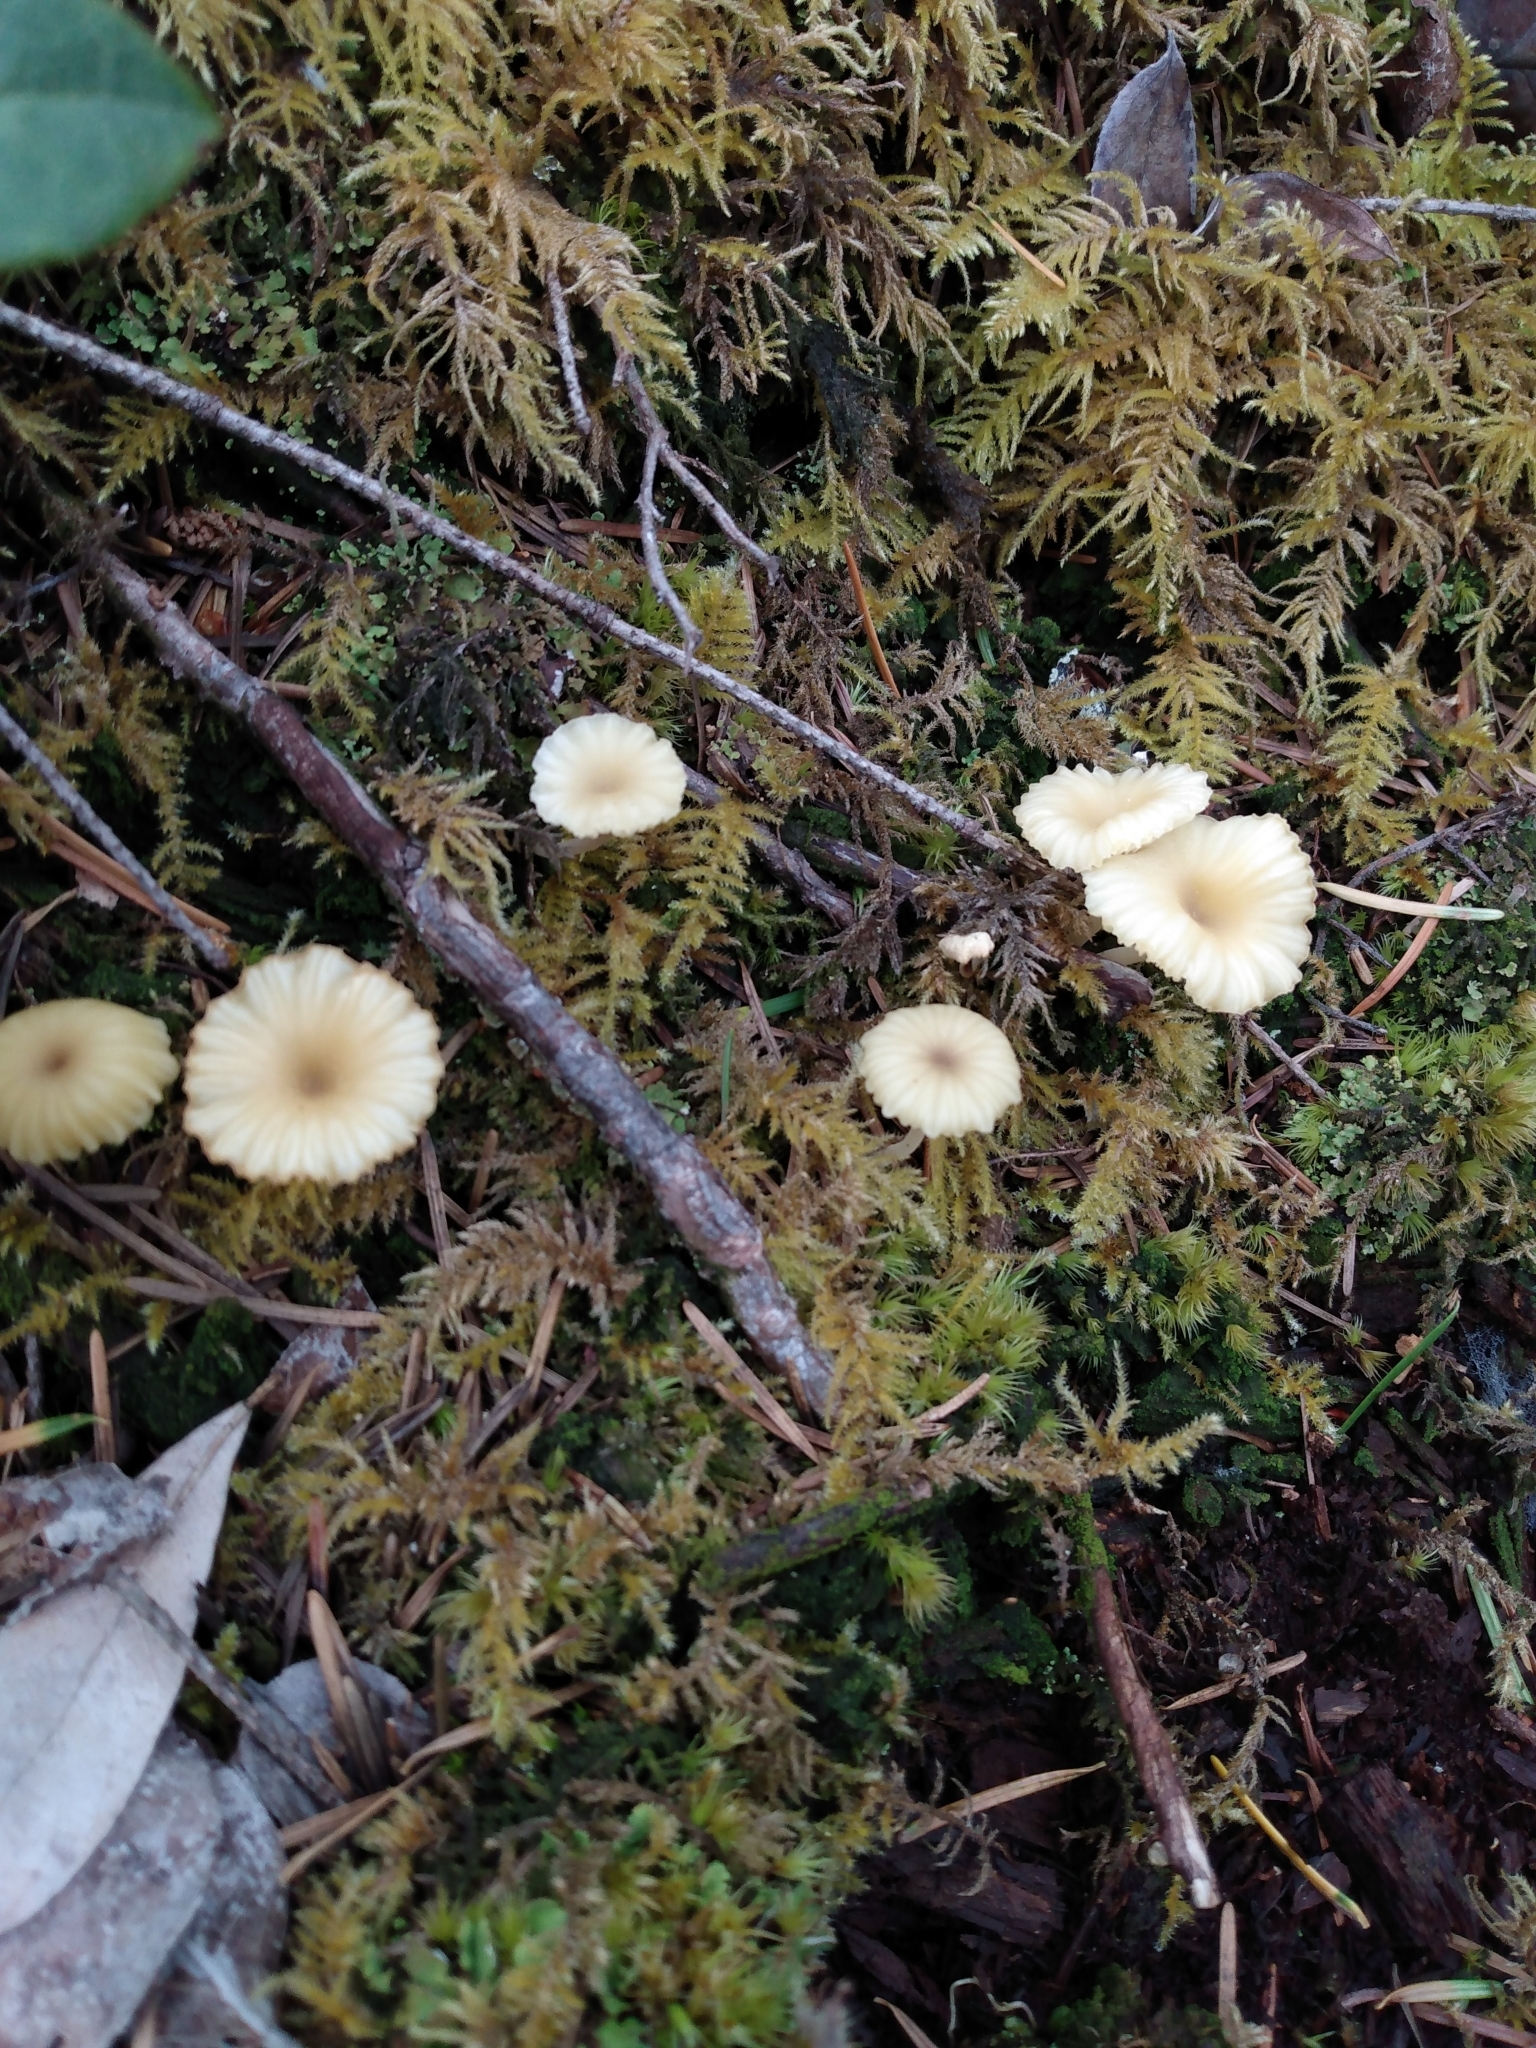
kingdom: Fungi
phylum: Basidiomycota
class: Agaricomycetes
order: Agaricales
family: Hygrophoraceae
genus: Lichenomphalia
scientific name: Lichenomphalia
